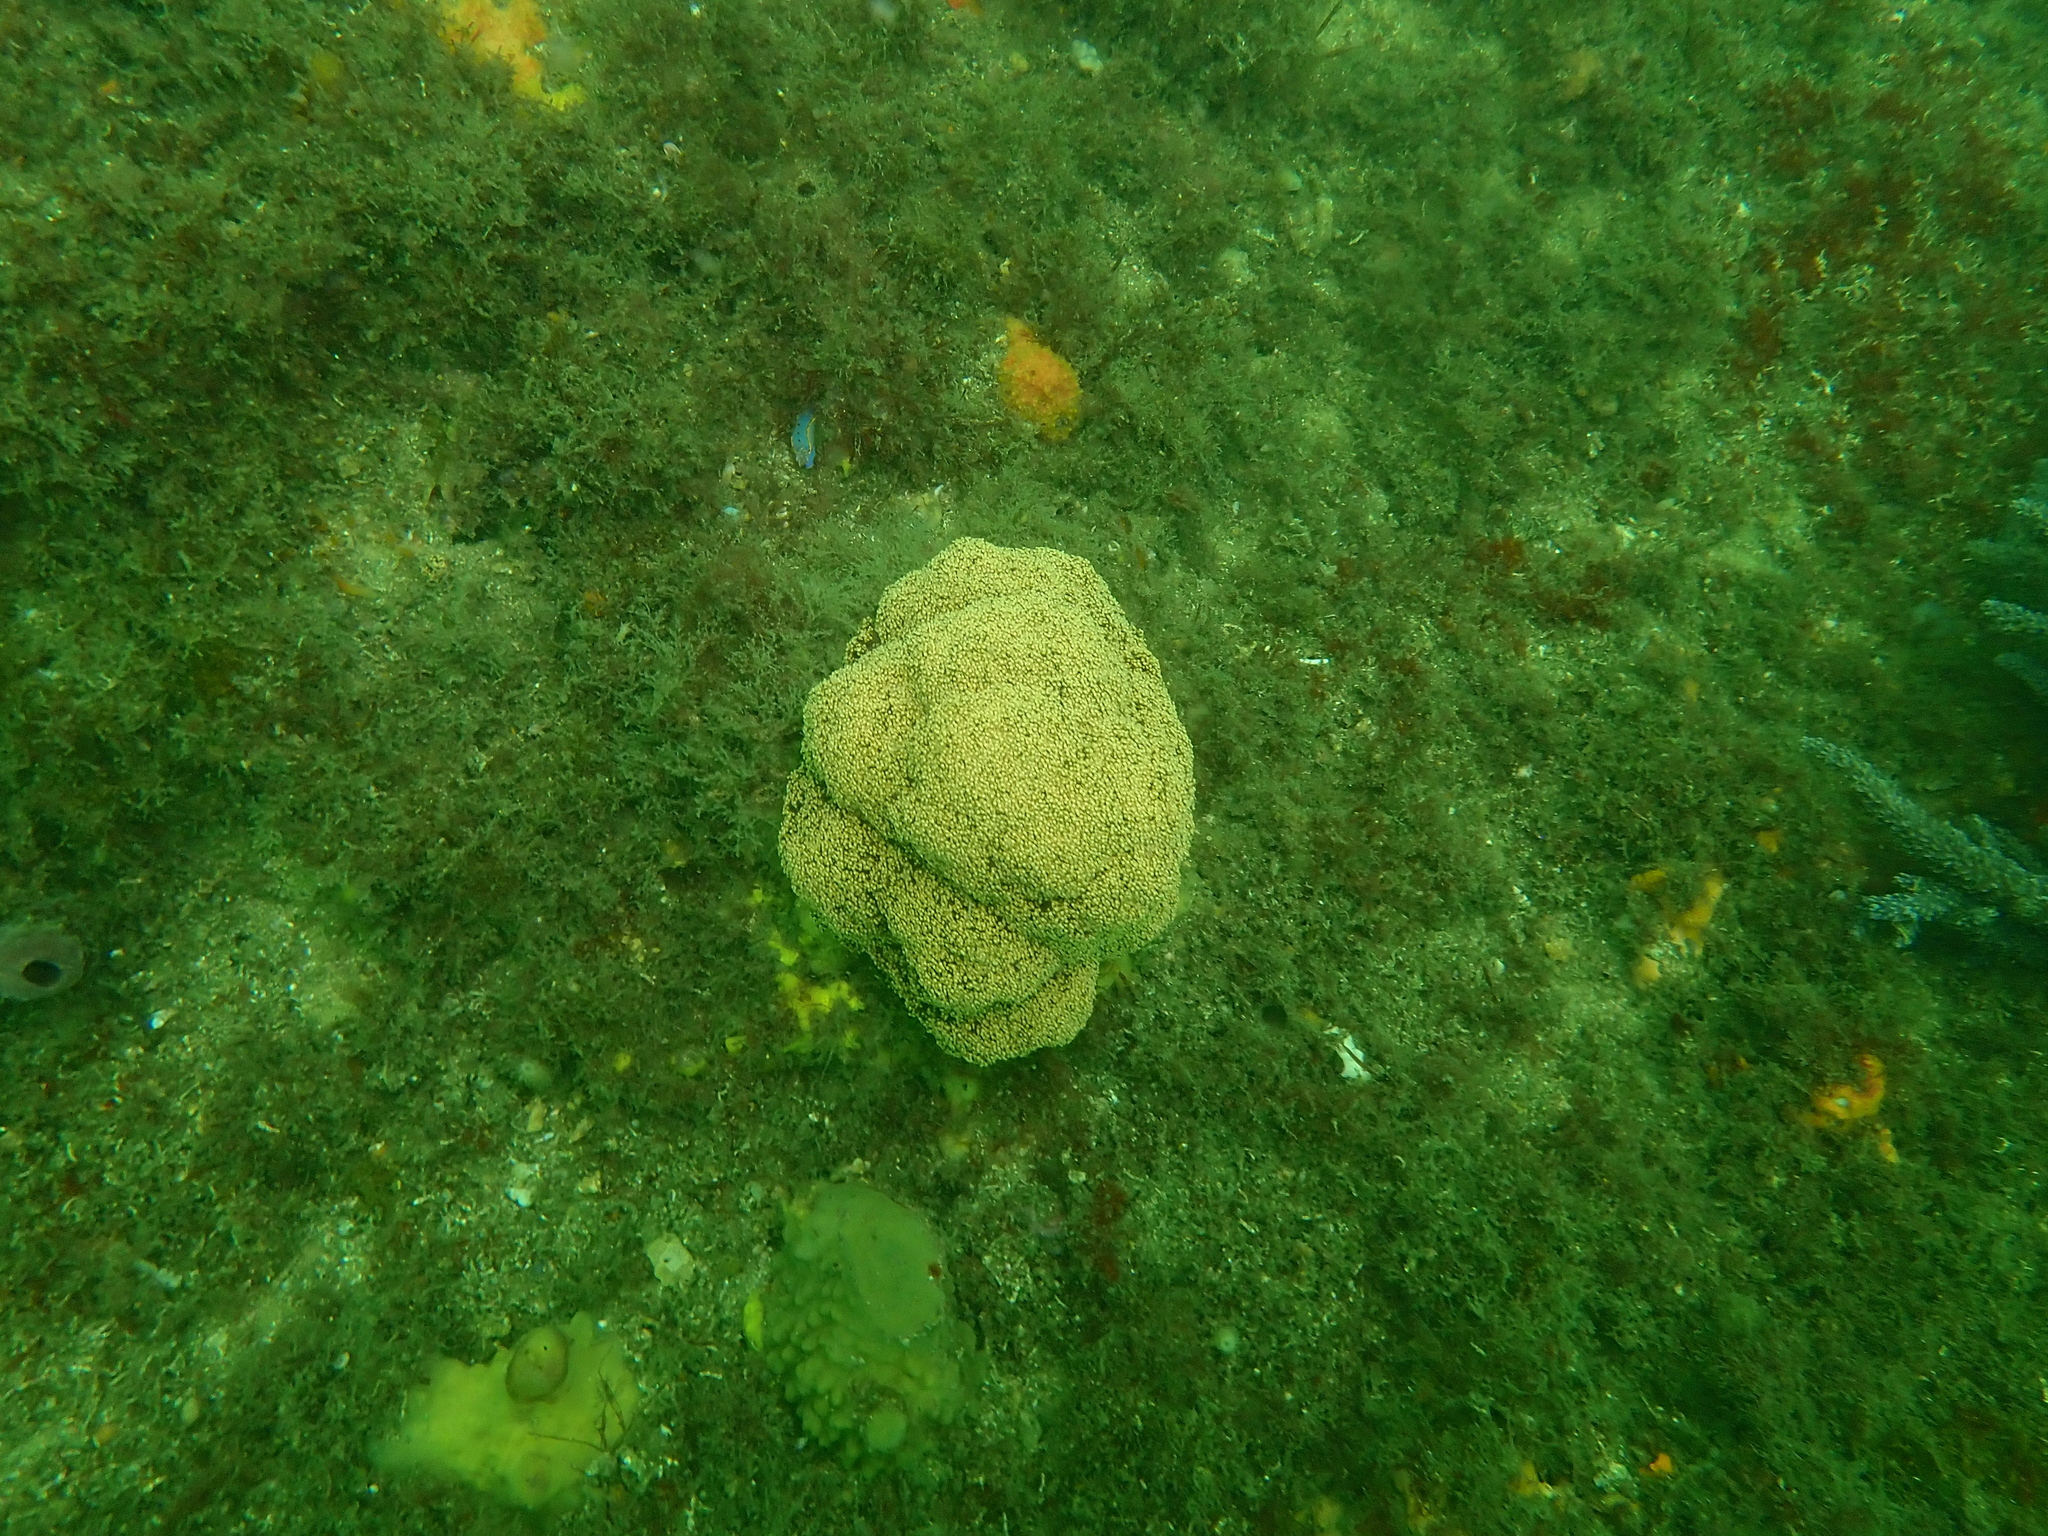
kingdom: Animalia
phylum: Cnidaria
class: Anthozoa
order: Malacalcyonacea
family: Nephtheidae
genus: Dendronephthya
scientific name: Dendronephthya australis
